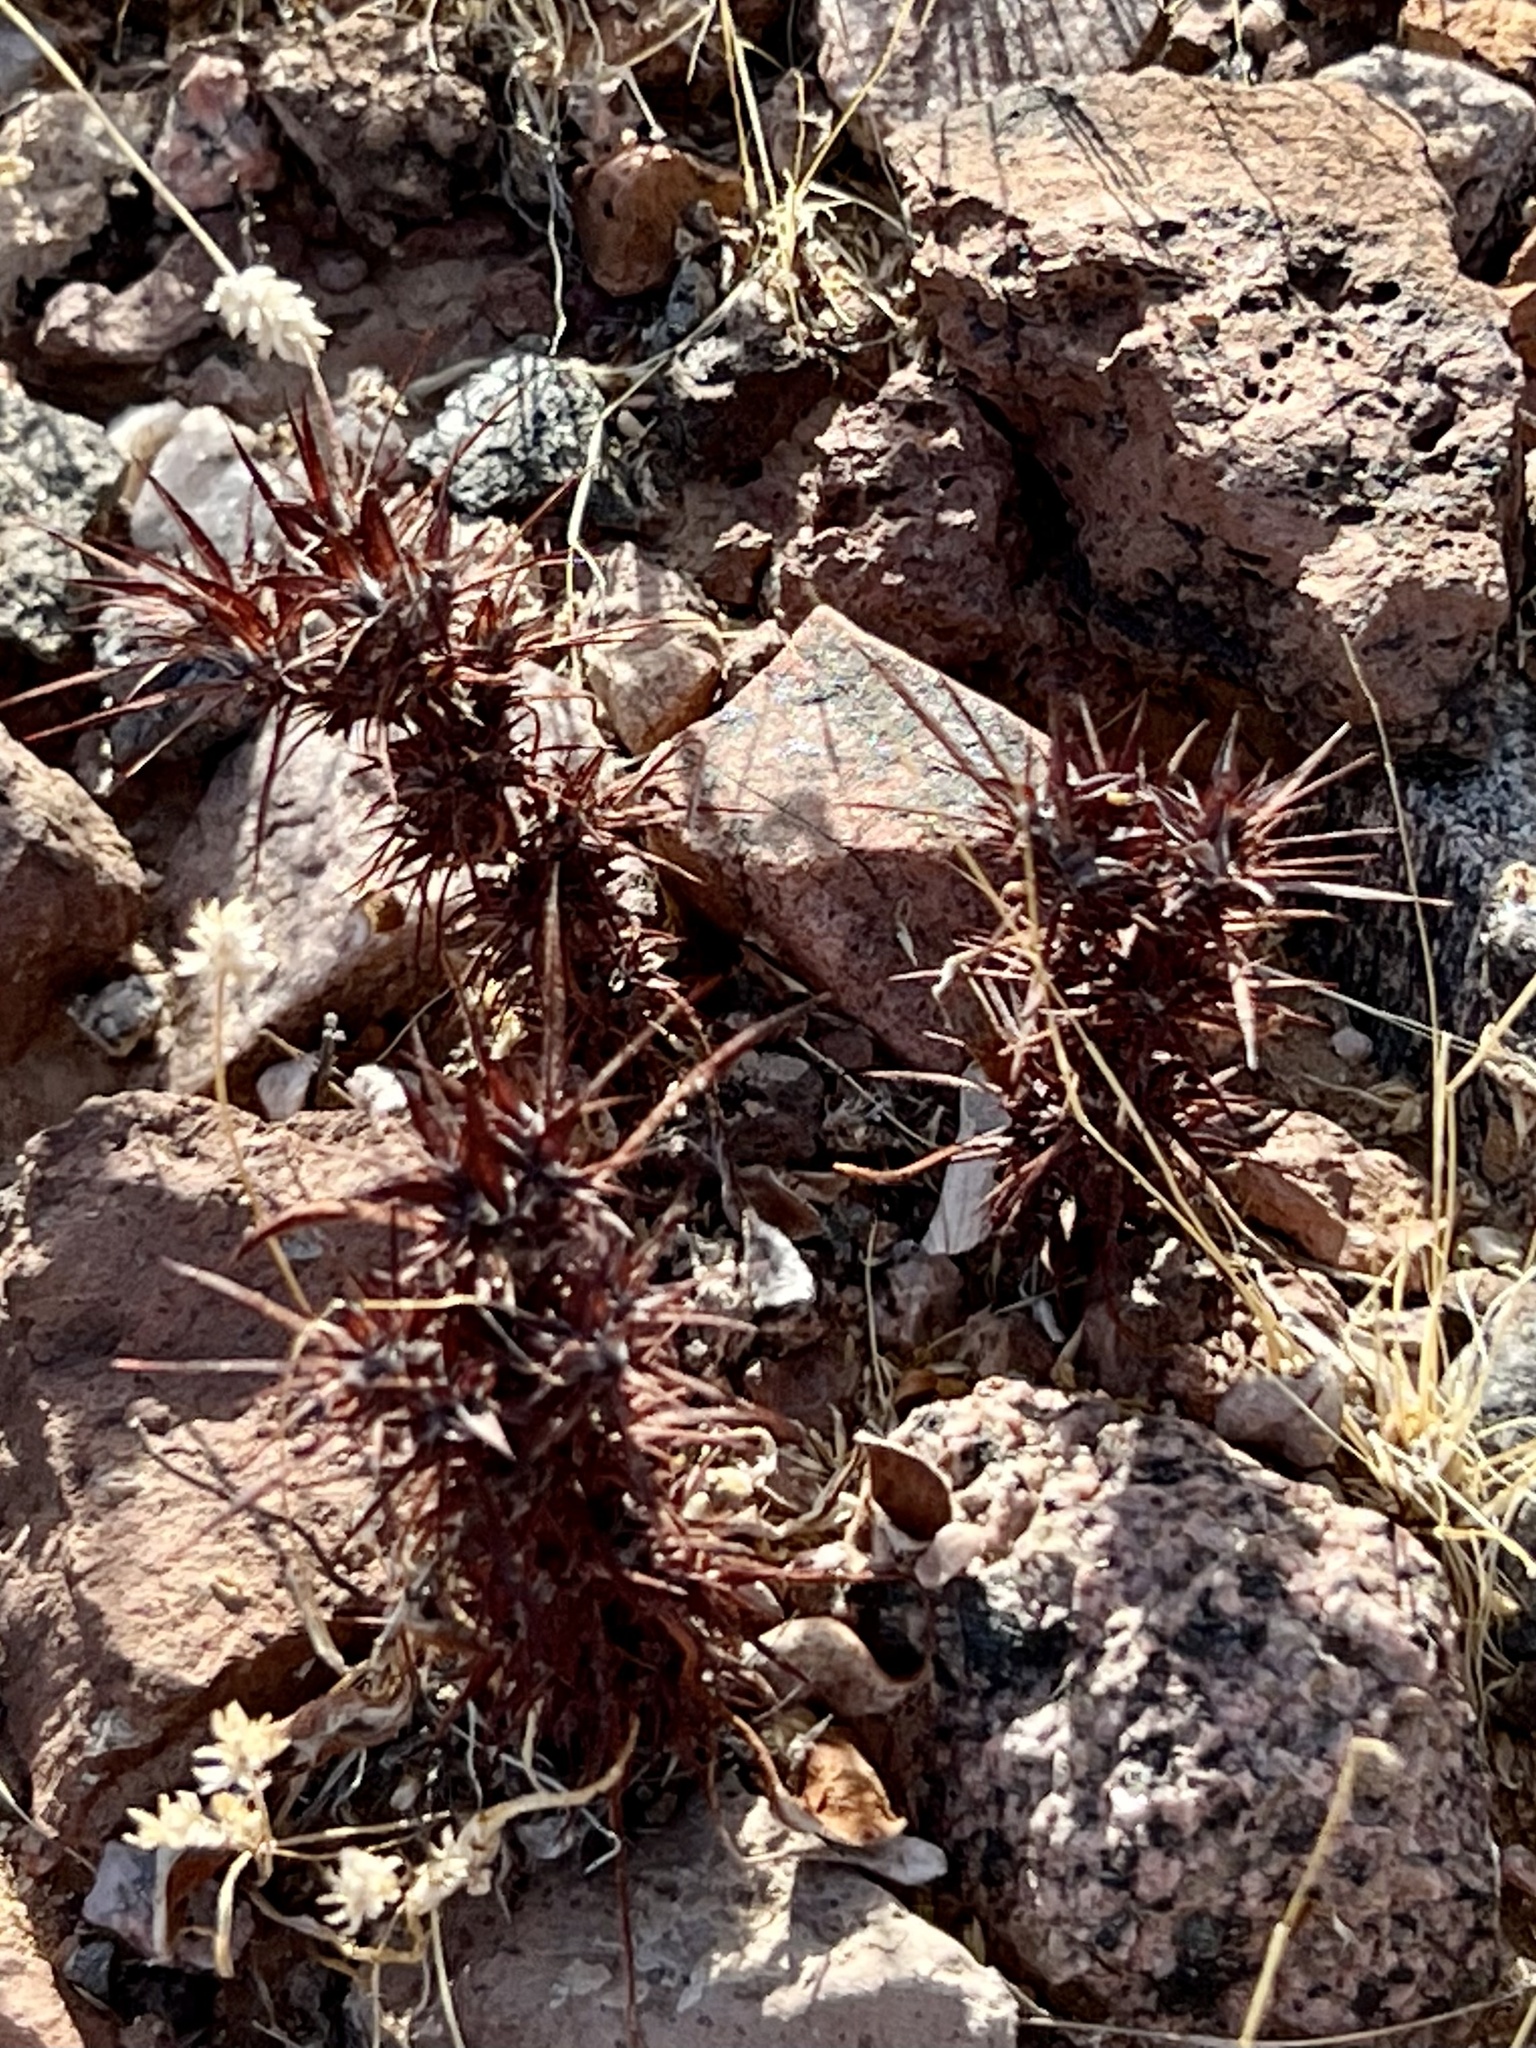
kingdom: Plantae
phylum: Tracheophyta
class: Magnoliopsida
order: Caryophyllales
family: Polygonaceae
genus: Chorizanthe
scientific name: Chorizanthe rigida
